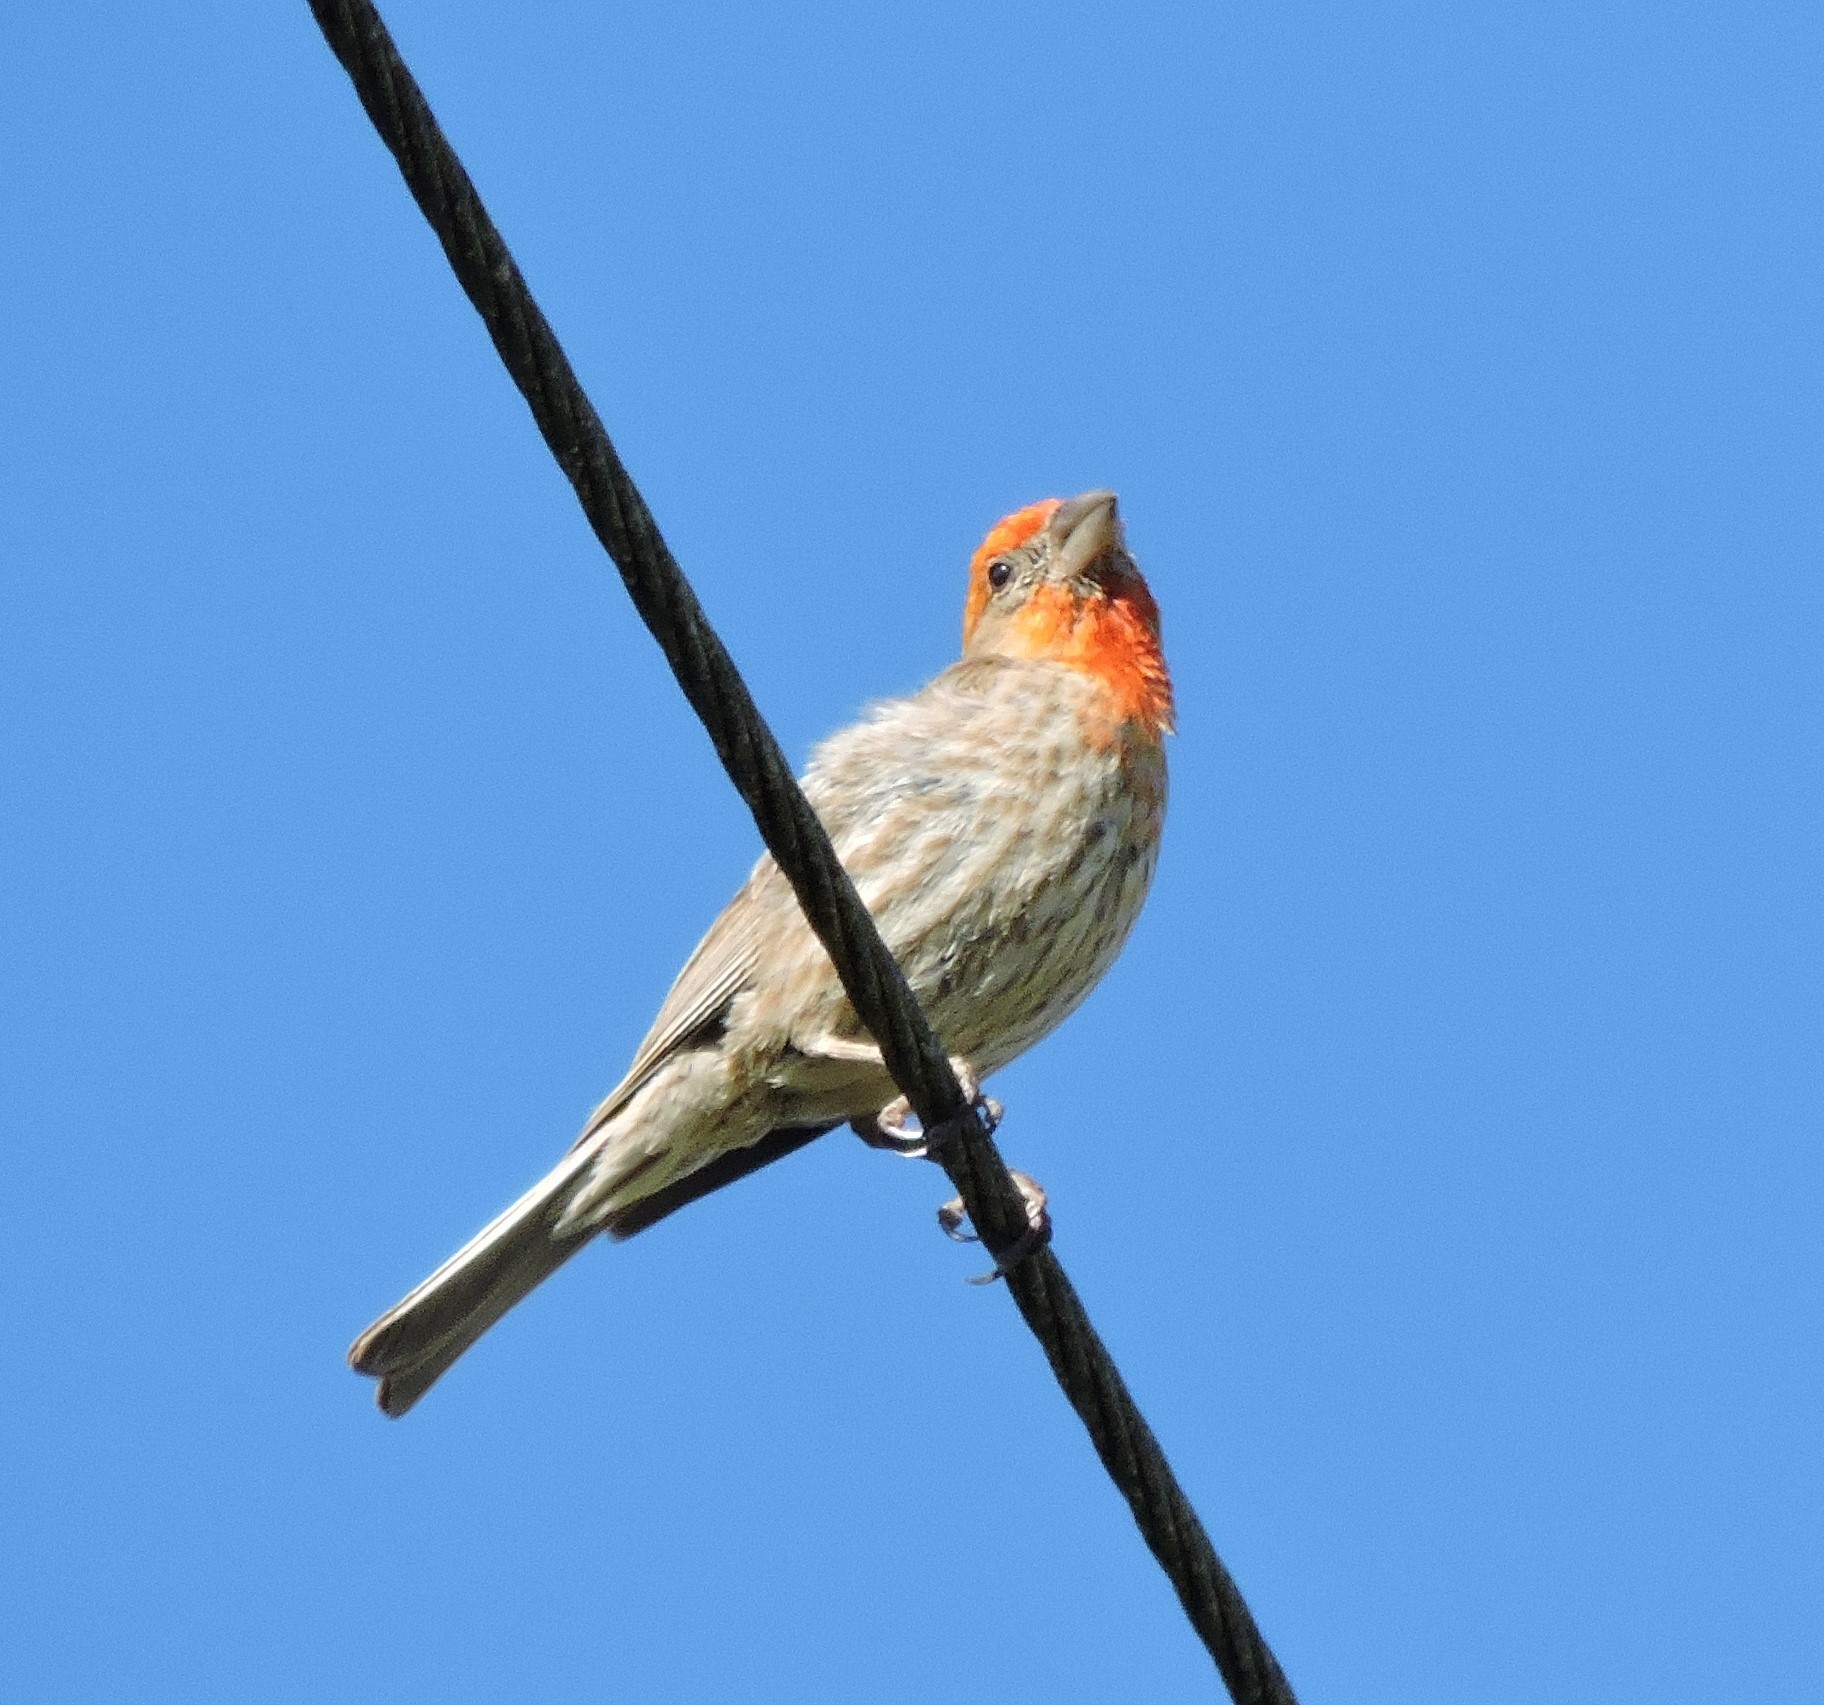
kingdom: Animalia
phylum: Chordata
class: Aves
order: Passeriformes
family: Fringillidae
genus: Haemorhous
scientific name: Haemorhous mexicanus
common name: House finch
